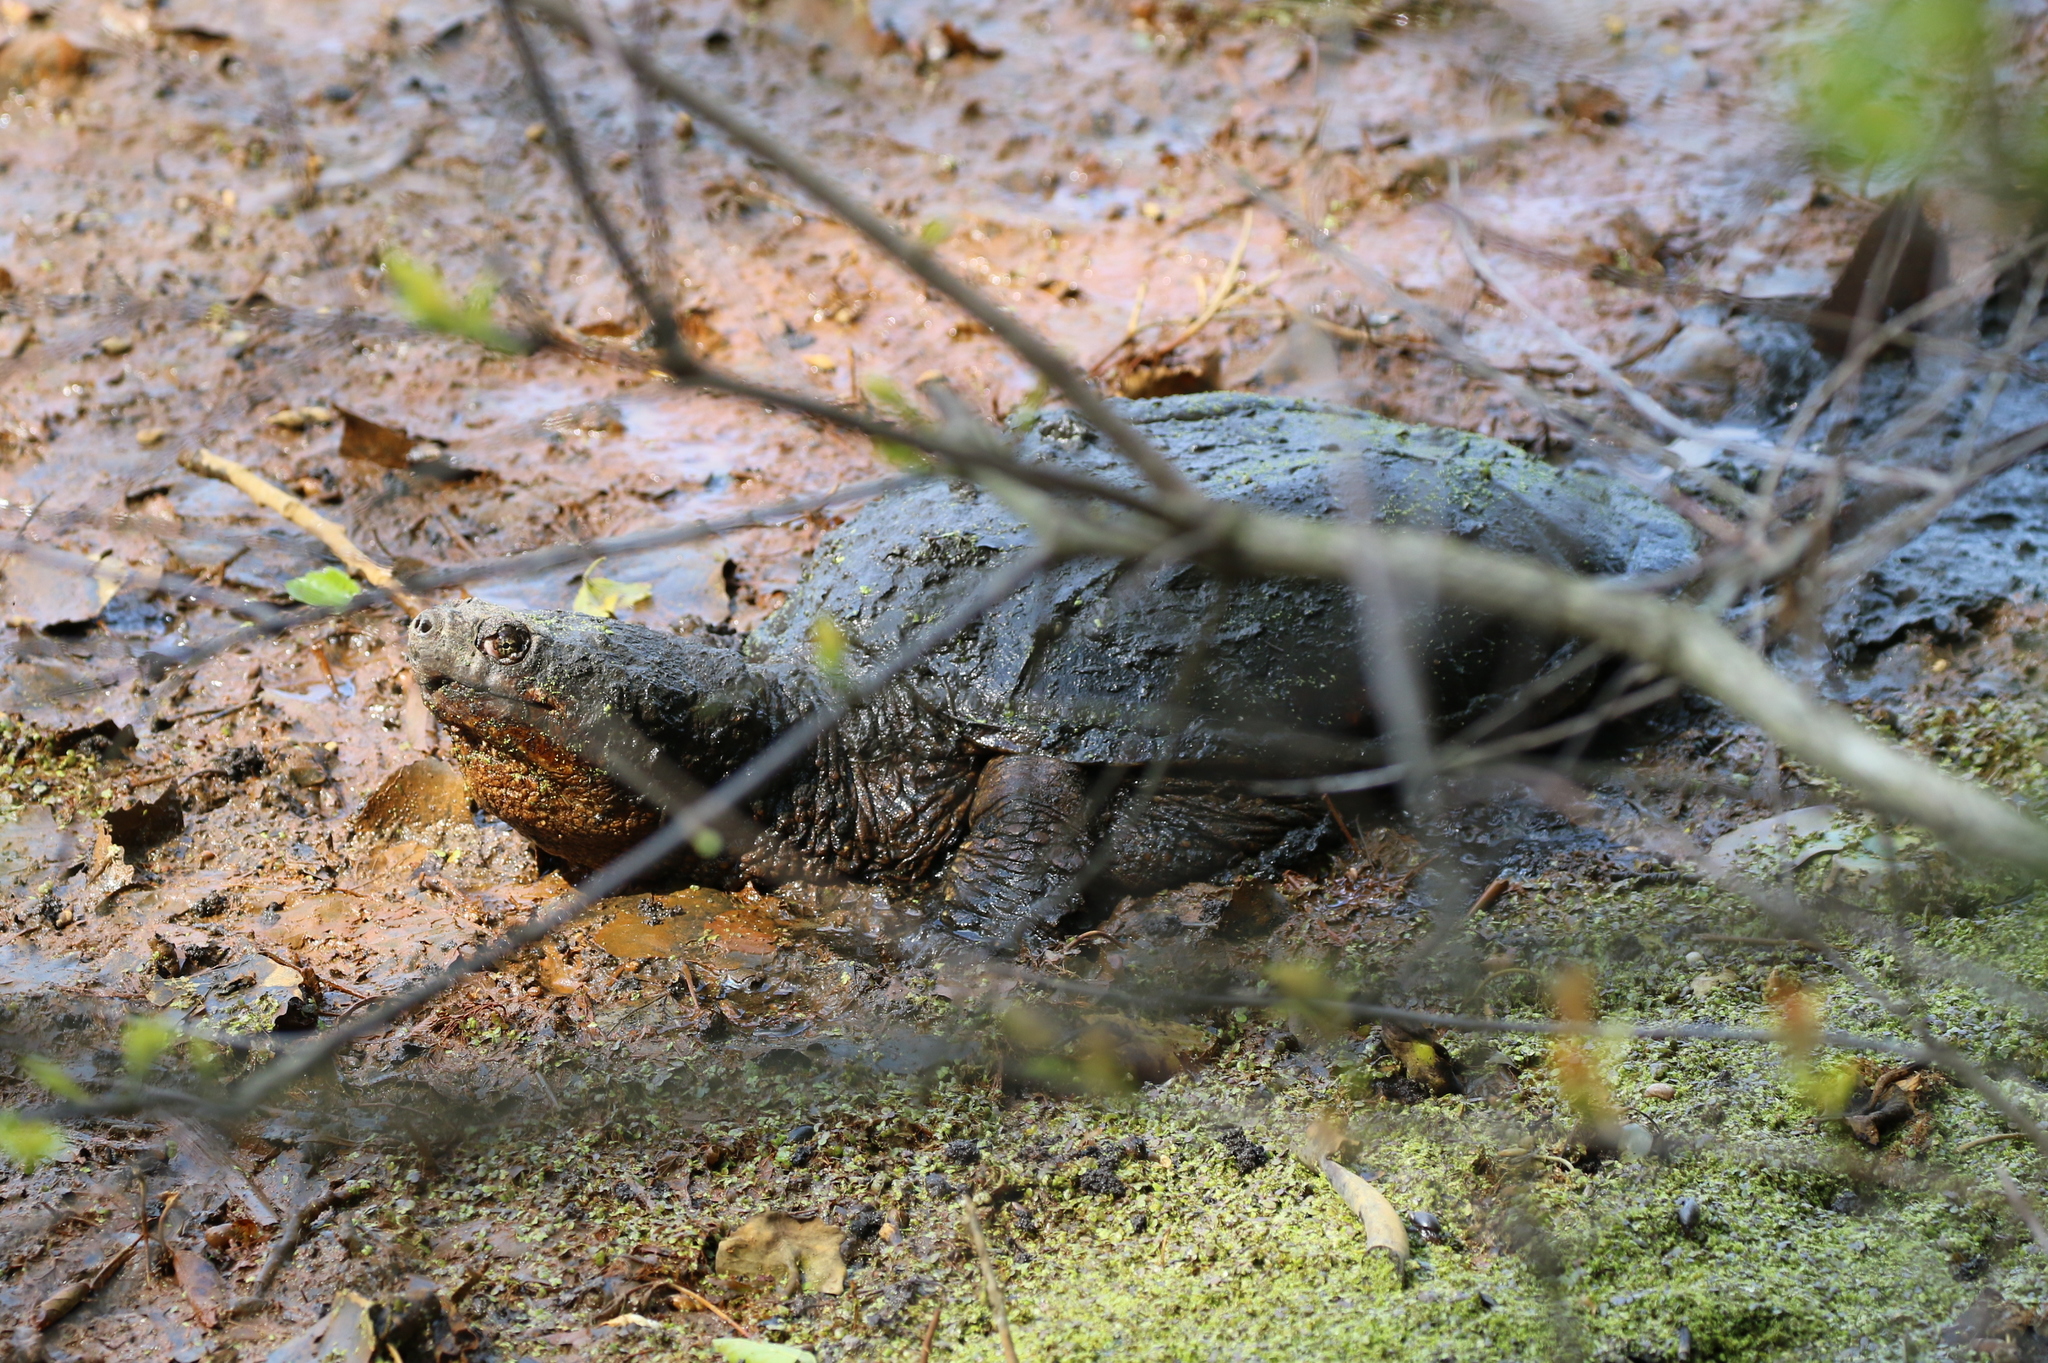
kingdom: Animalia
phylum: Chordata
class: Testudines
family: Chelydridae
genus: Chelydra
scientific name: Chelydra serpentina
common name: Common snapping turtle
